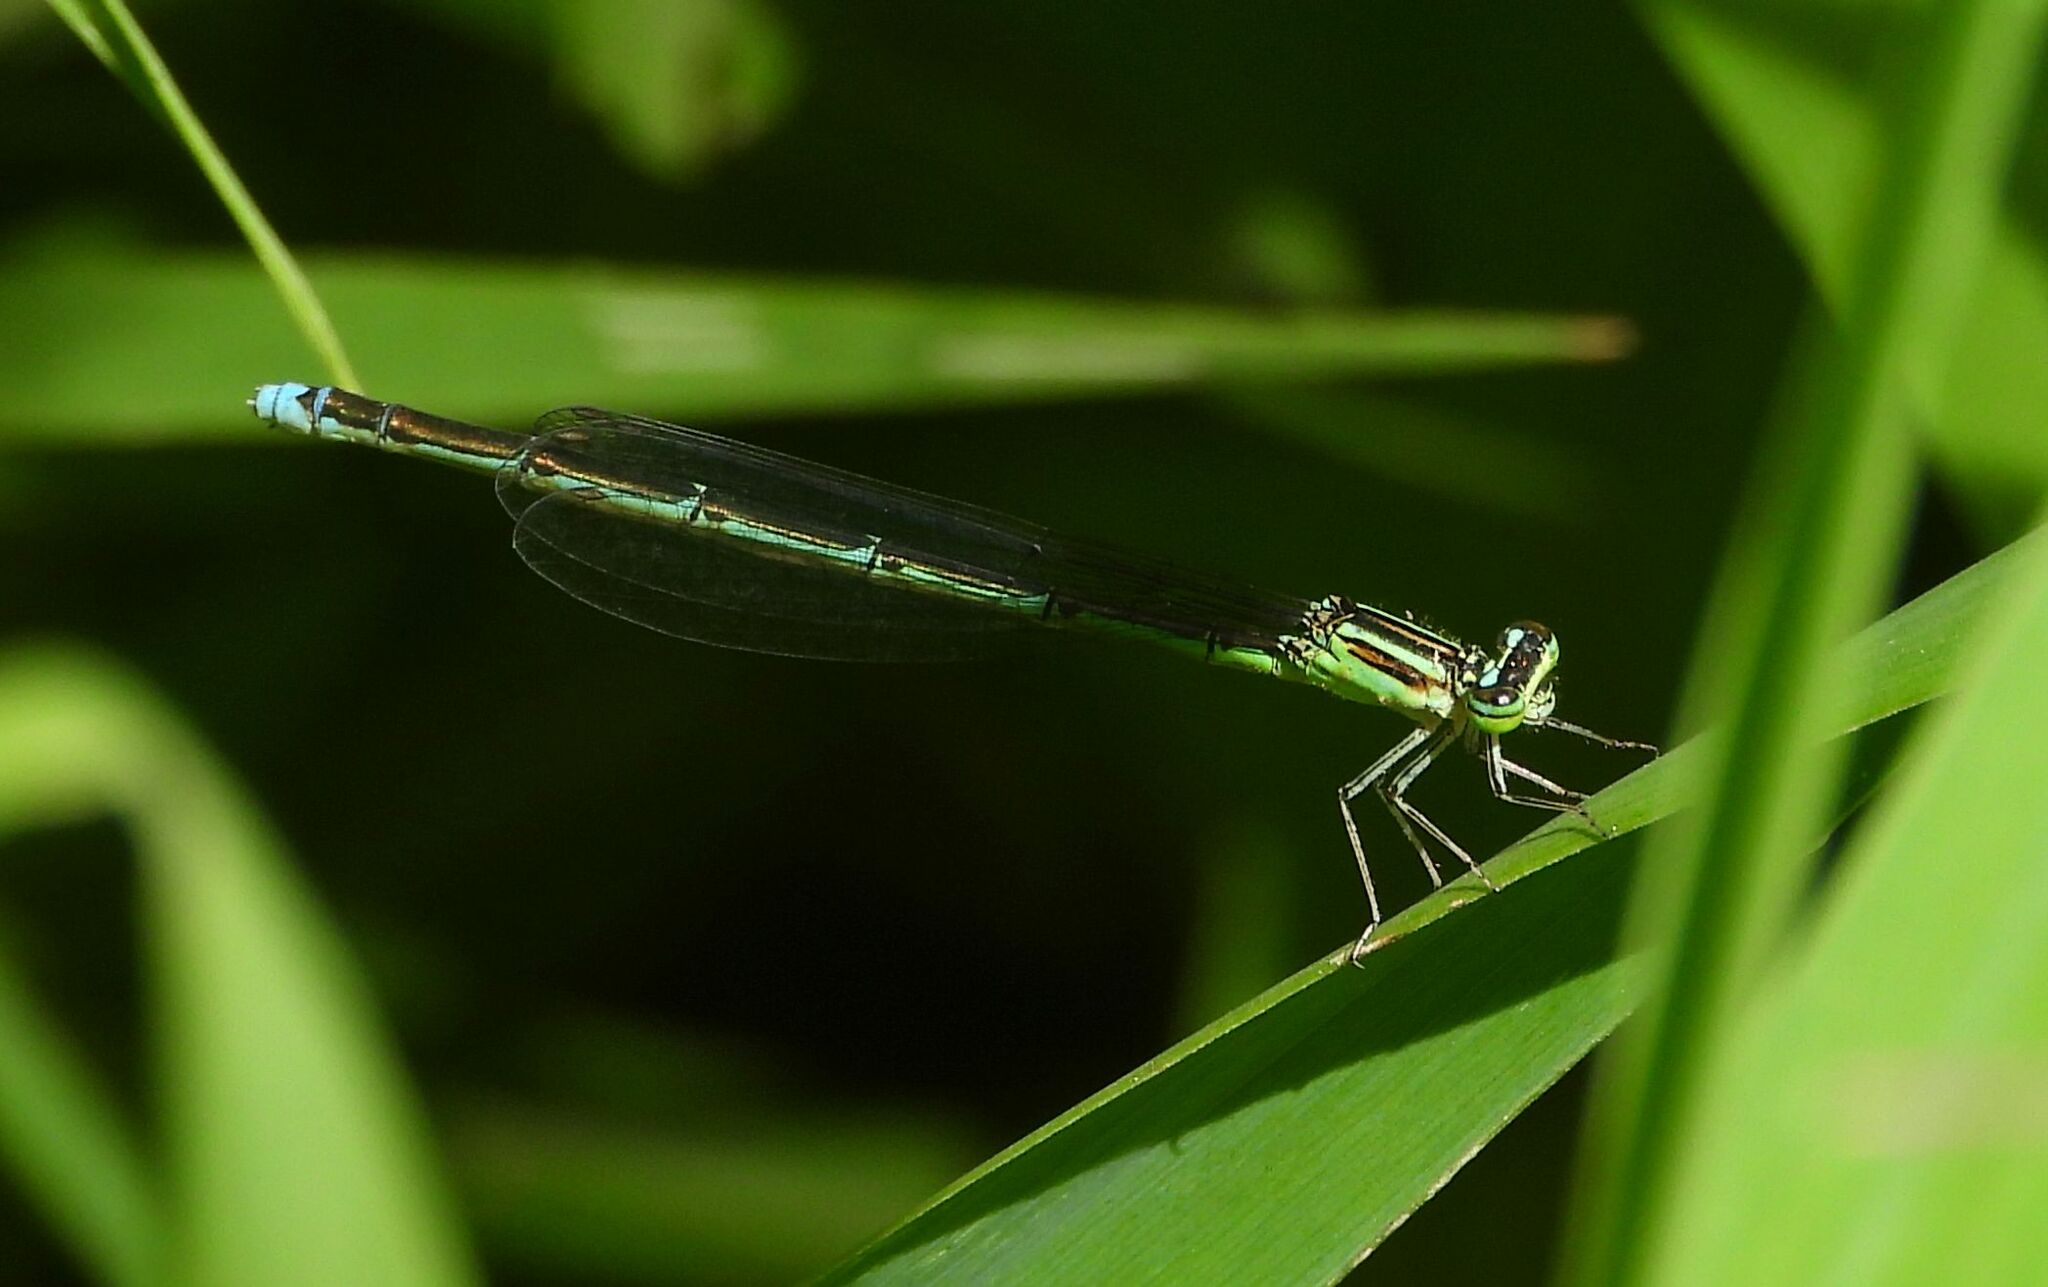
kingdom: Animalia
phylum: Arthropoda
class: Insecta
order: Odonata
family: Coenagrionidae
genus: Enallagma
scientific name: Enallagma exsulans
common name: Stream bluet
